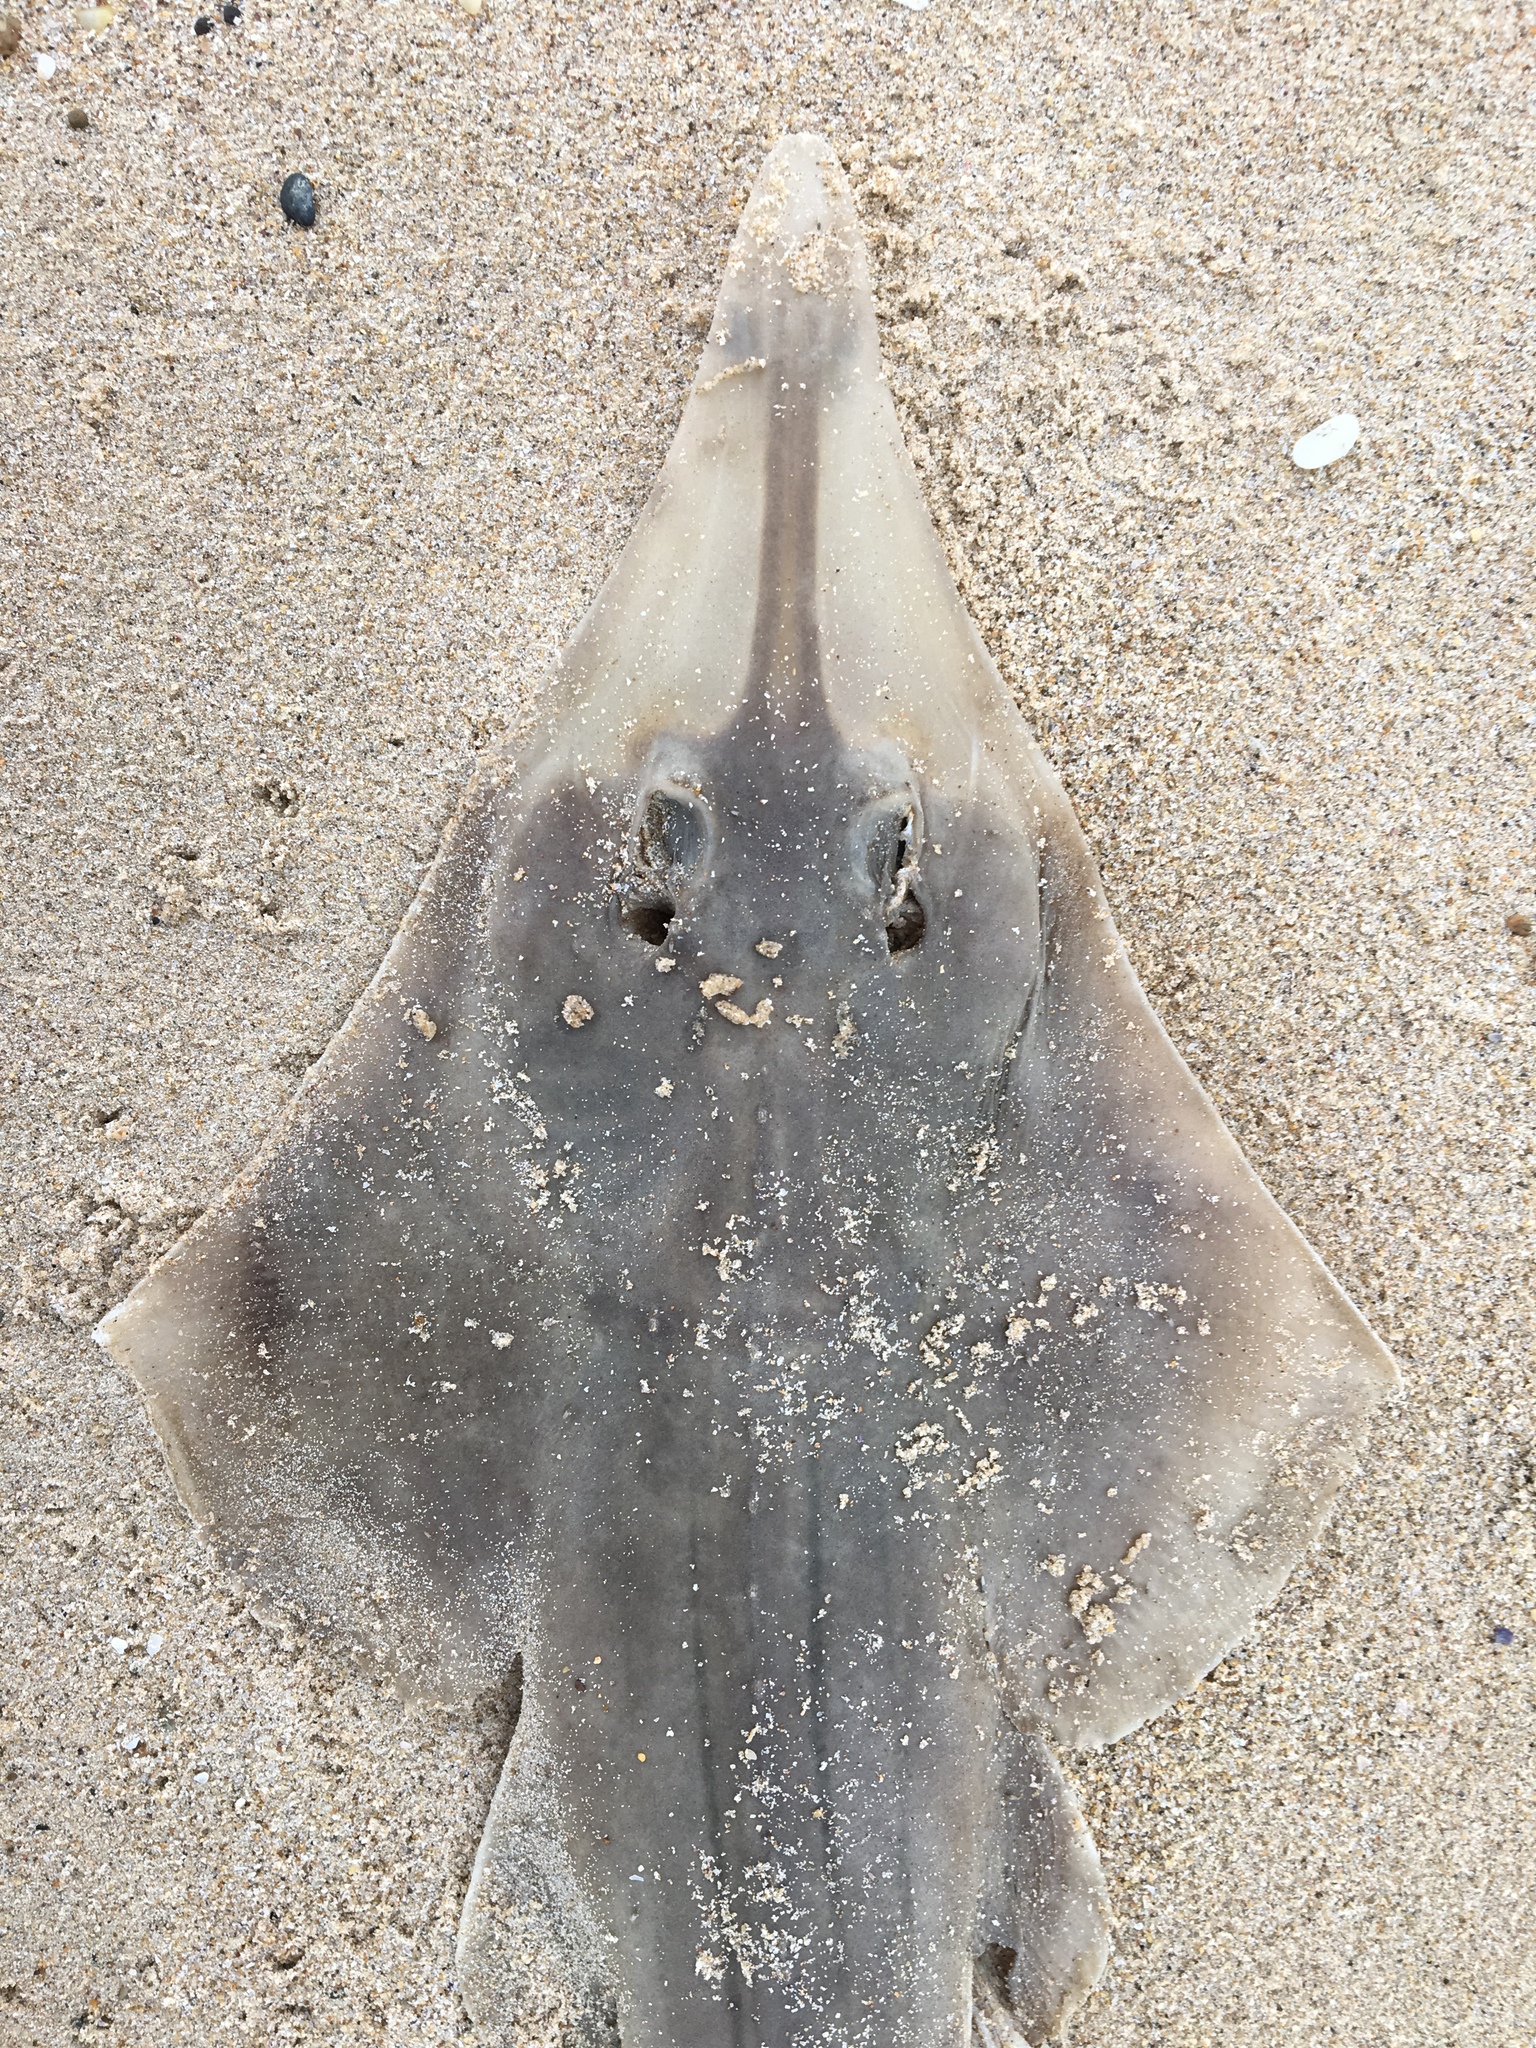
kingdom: Animalia
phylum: Chordata
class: Elasmobranchii
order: Rhinopristiformes
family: Rhinobatidae
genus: Aptychotrema
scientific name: Aptychotrema rostrata
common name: Eastern shovelnose ray
